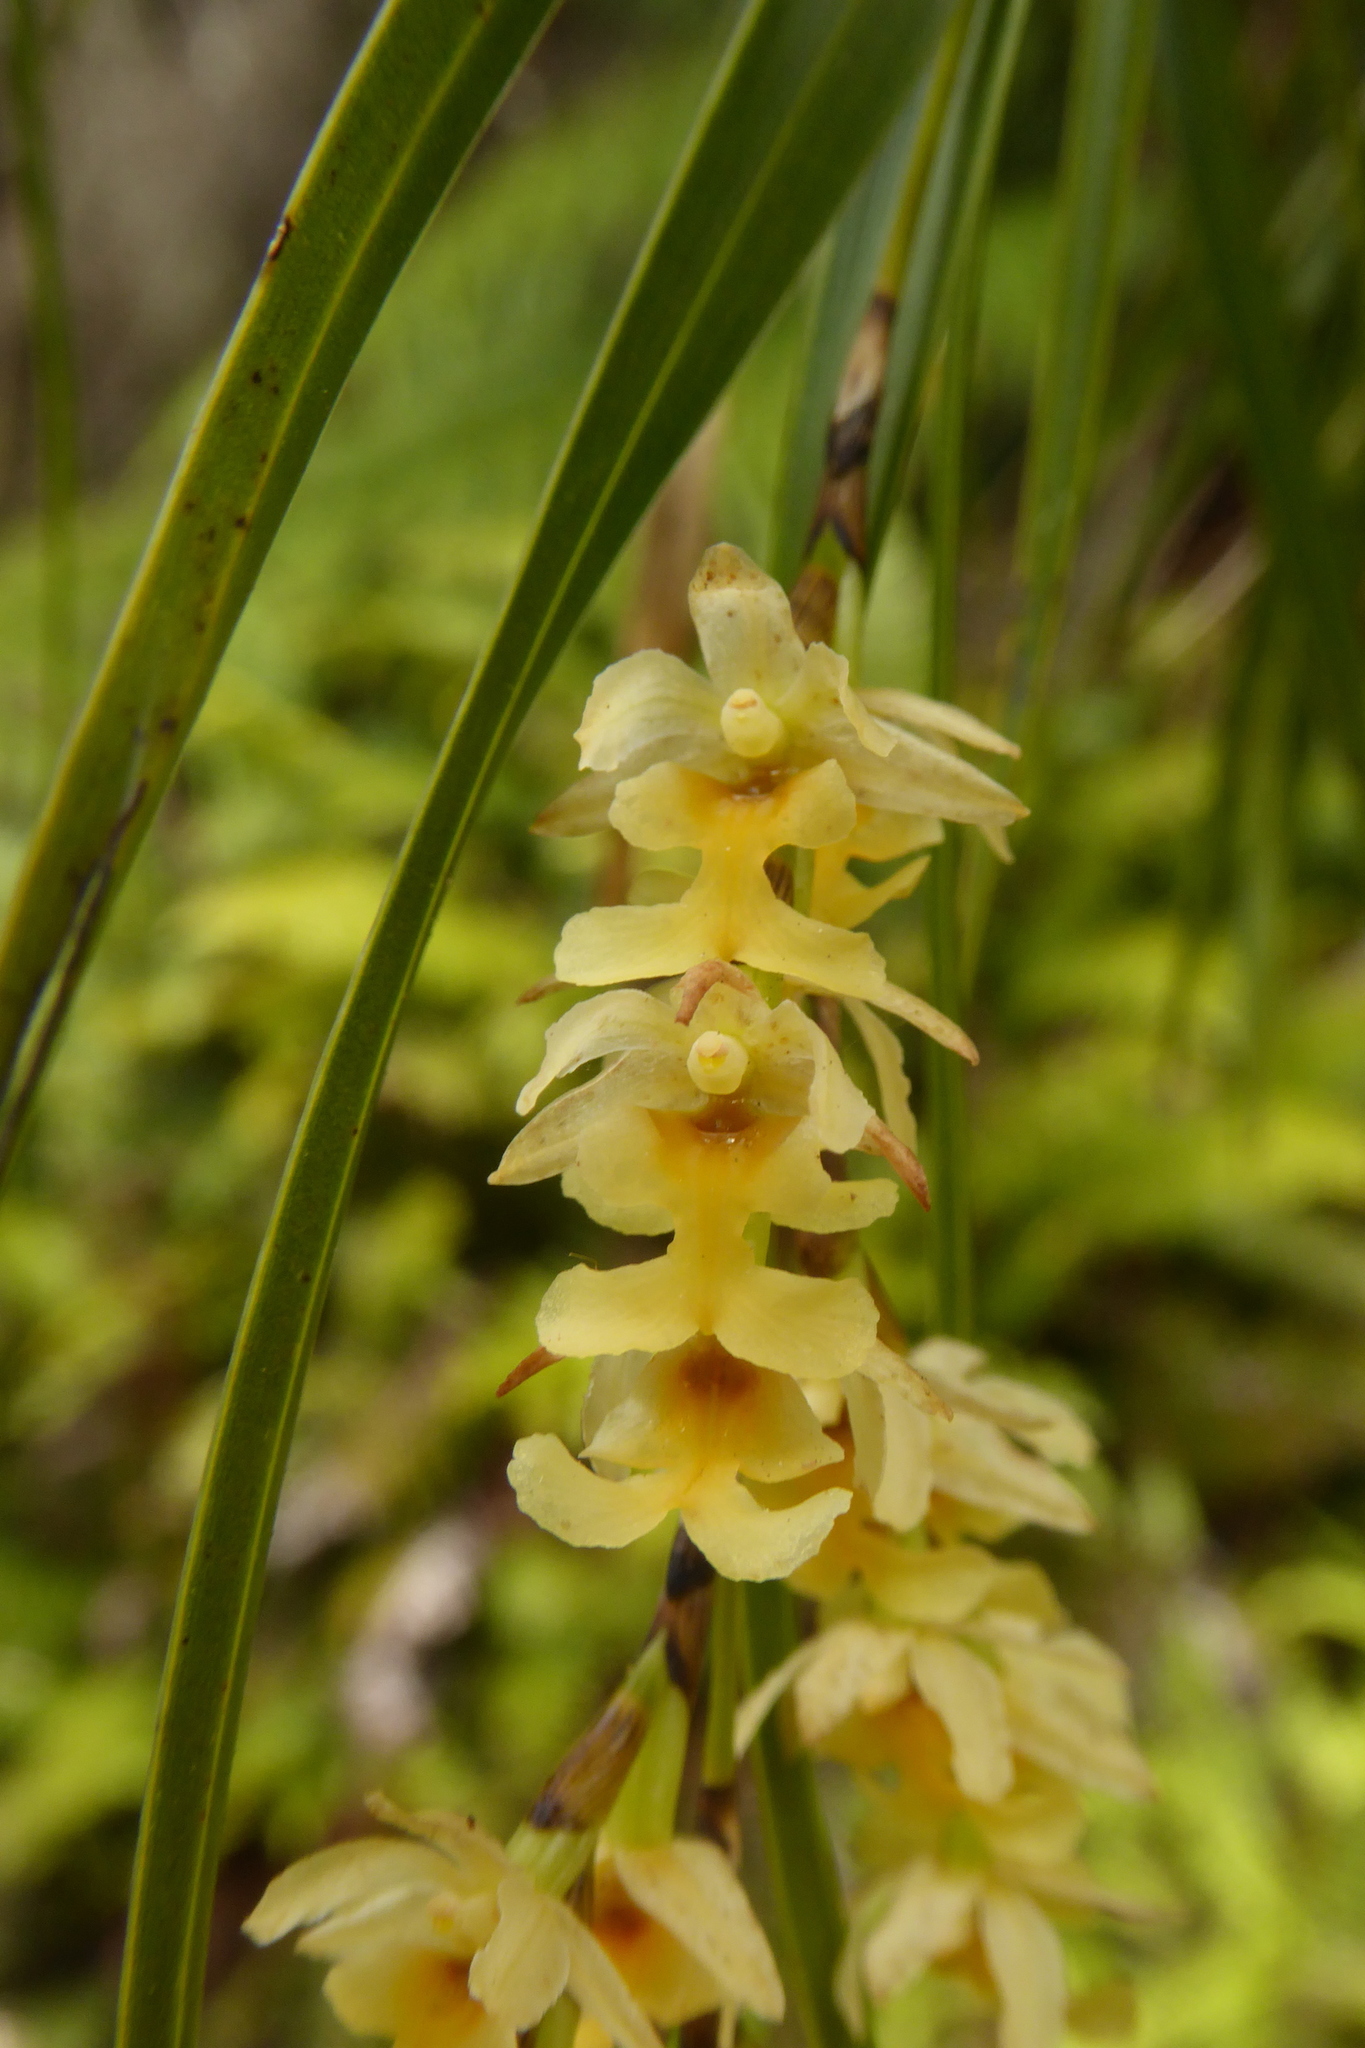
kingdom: Plantae
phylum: Tracheophyta
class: Liliopsida
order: Asparagales
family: Orchidaceae
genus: Earina
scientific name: Earina mucronata
